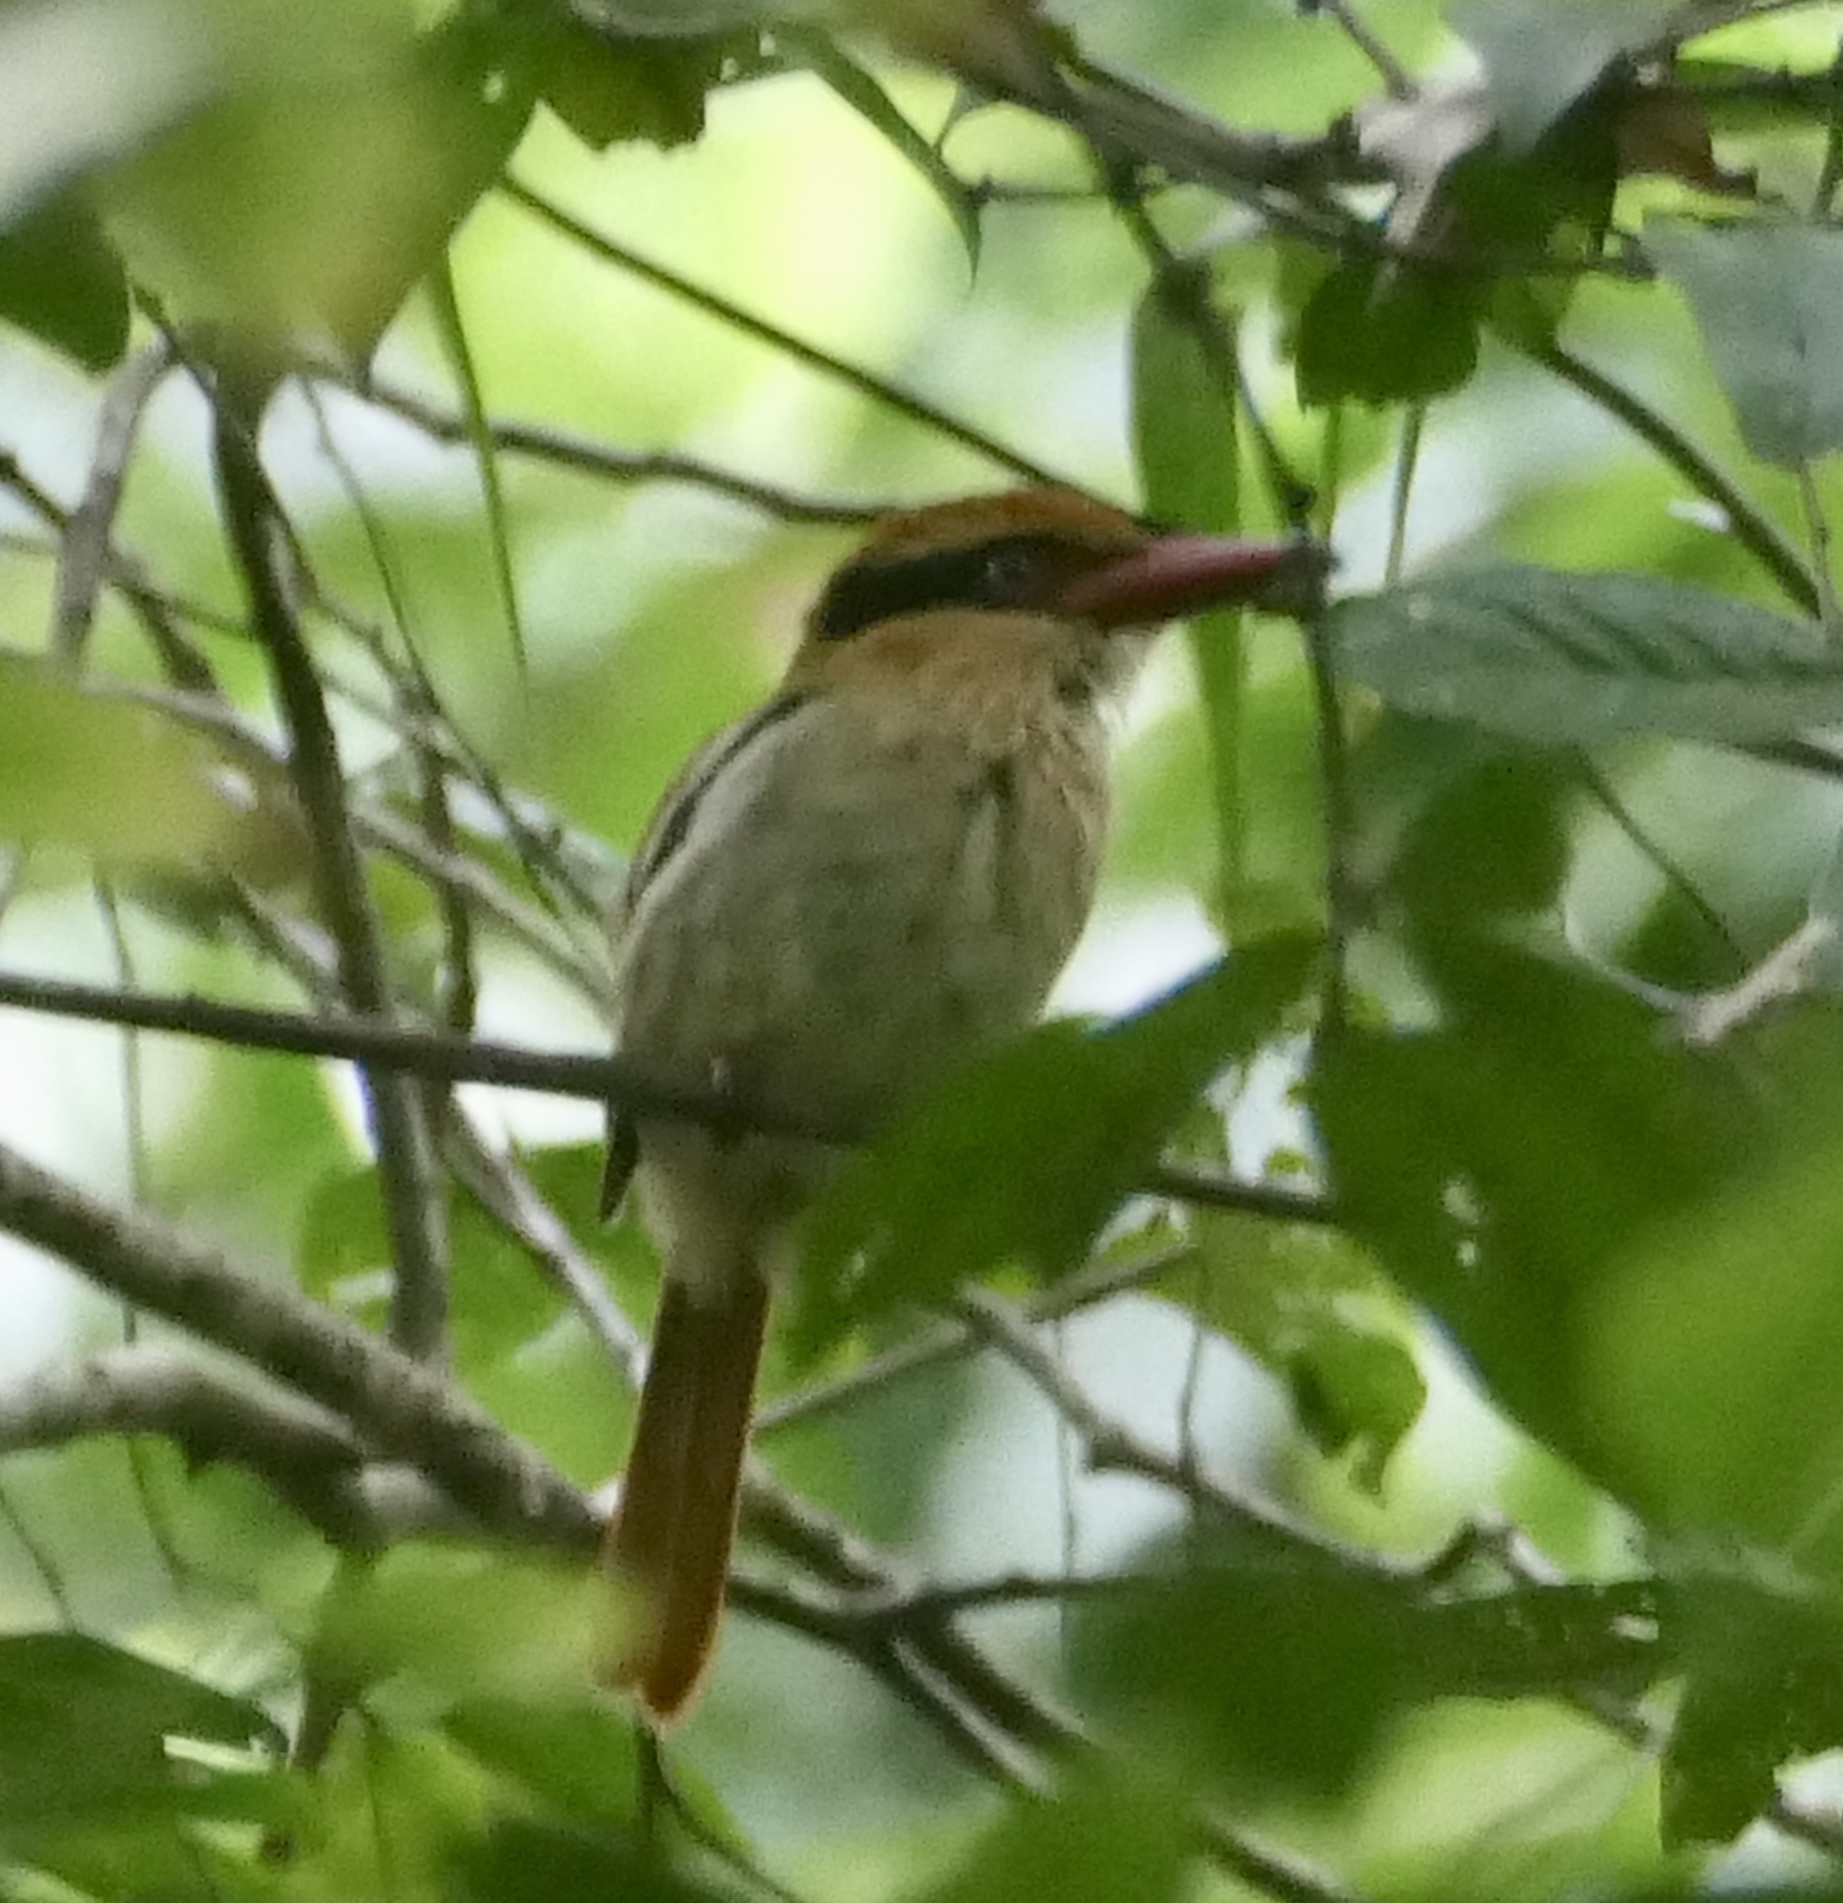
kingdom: Animalia
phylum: Chordata
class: Aves
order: Coraciiformes
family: Alcedinidae
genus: Cittura
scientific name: Cittura cyanotis
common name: Lilac kingfisher
